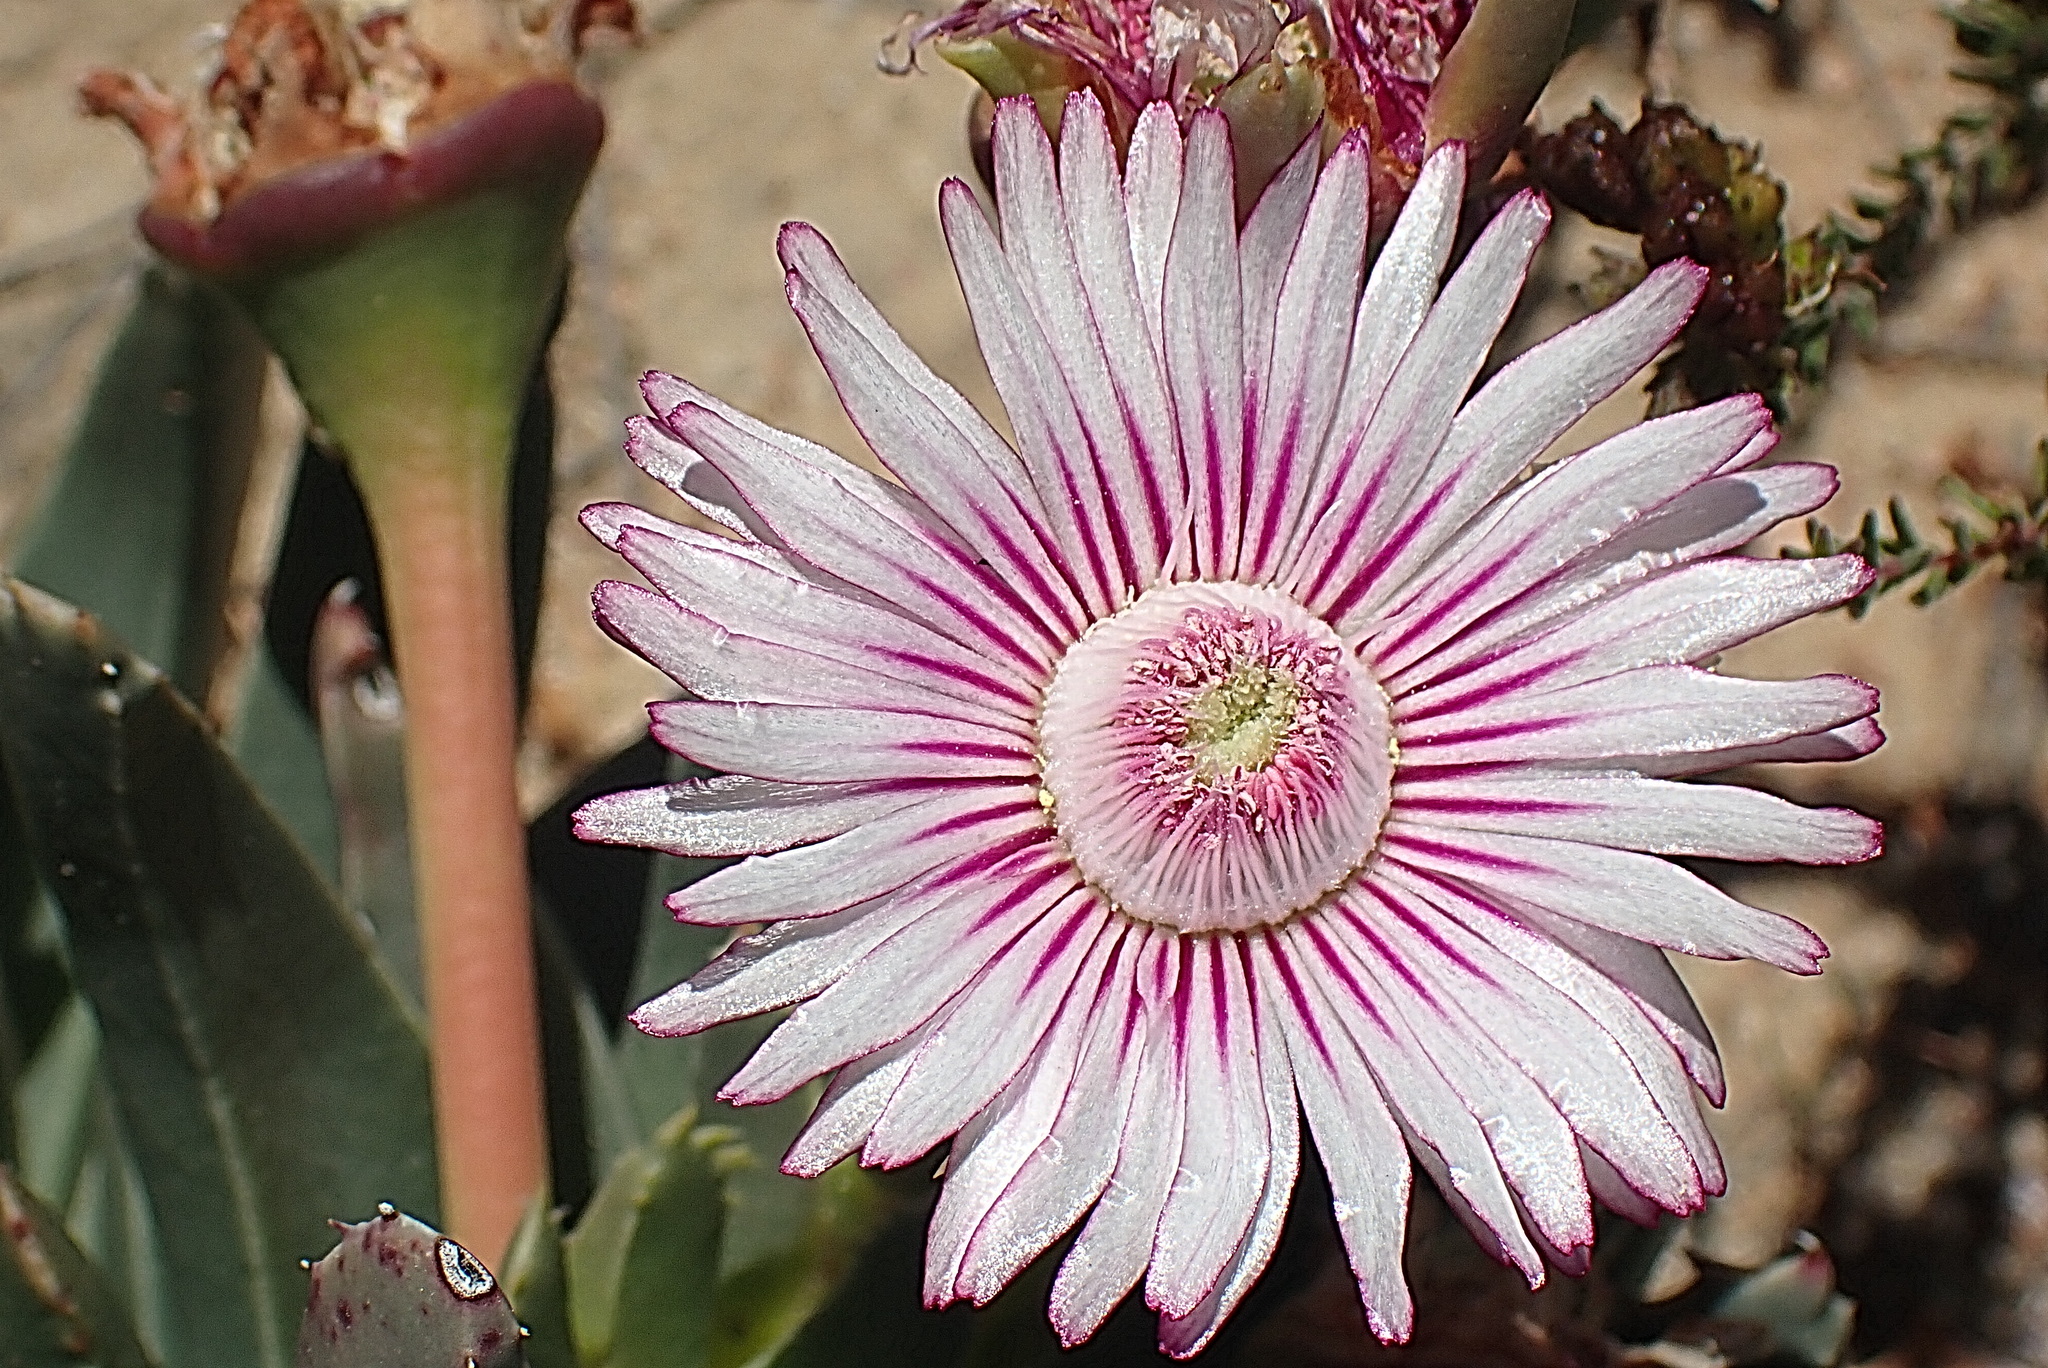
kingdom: Plantae
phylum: Tracheophyta
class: Magnoliopsida
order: Caryophyllales
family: Aizoaceae
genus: Acrodon
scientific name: Acrodon bellidiflorus
